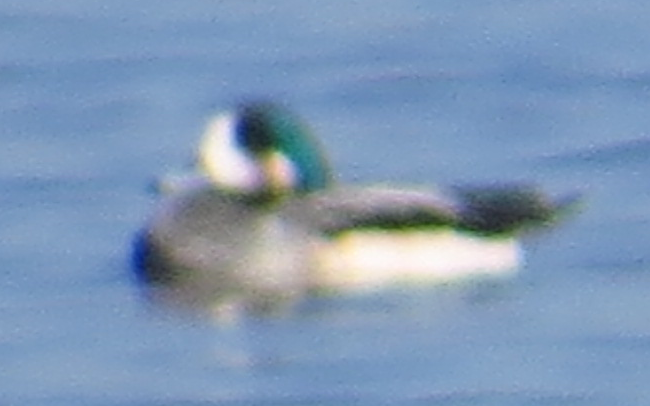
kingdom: Animalia
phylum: Chordata
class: Aves
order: Anseriformes
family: Anatidae
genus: Mareca
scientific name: Mareca sibilatrix
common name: Chiloe wigeon
